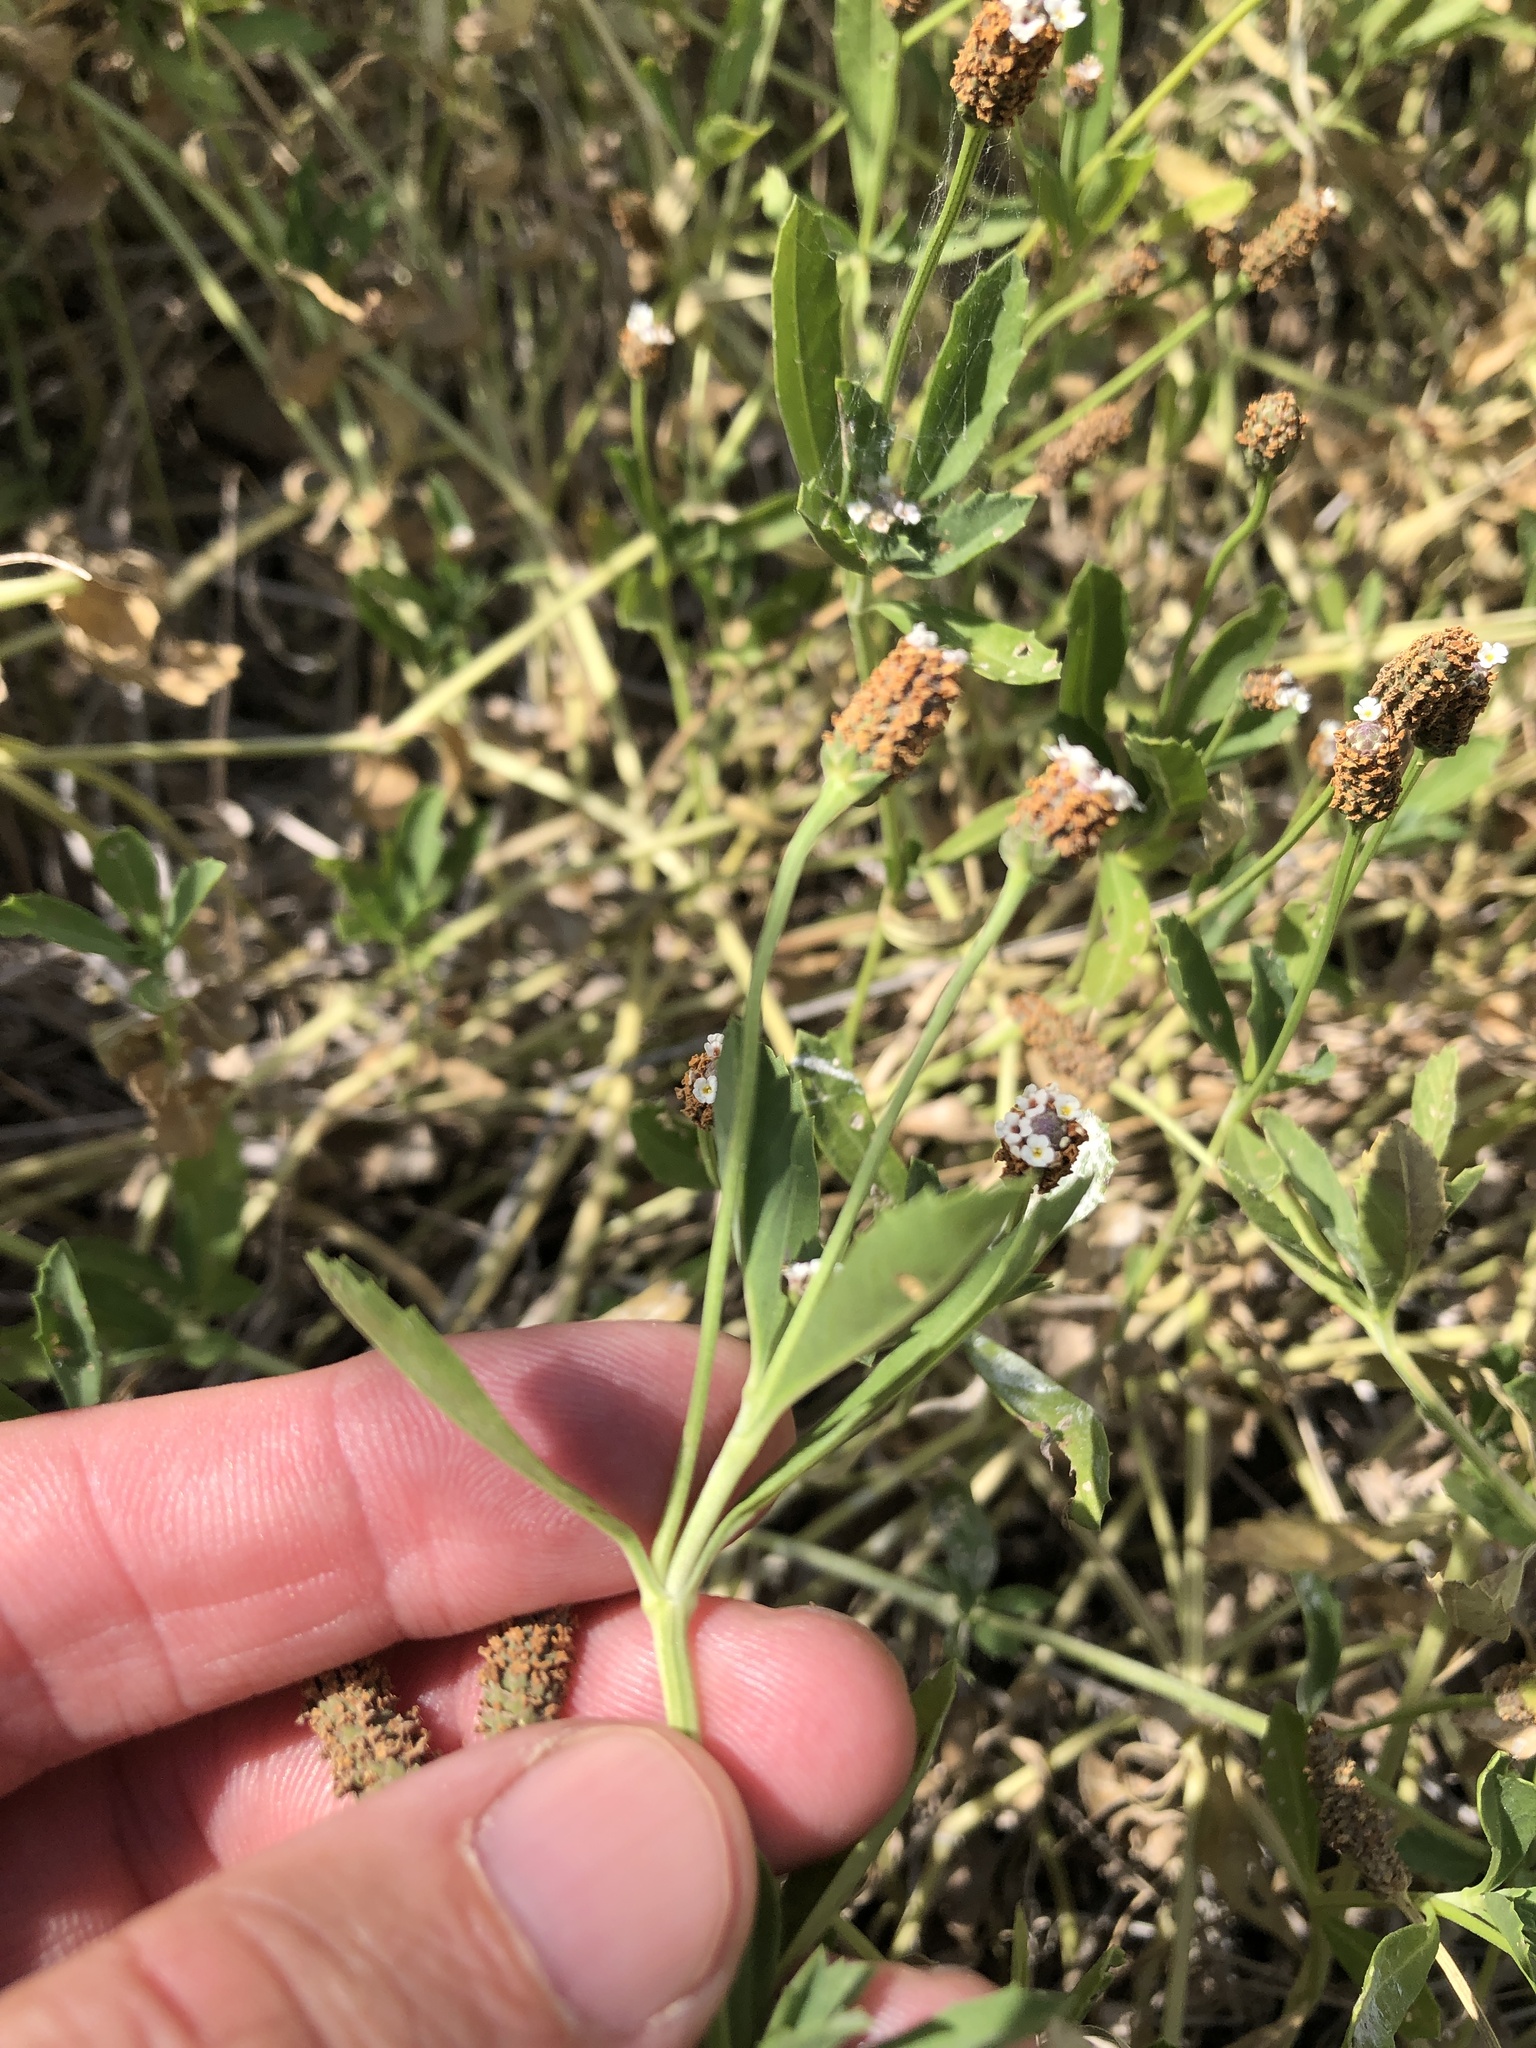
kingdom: Plantae
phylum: Tracheophyta
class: Magnoliopsida
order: Lamiales
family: Verbenaceae
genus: Phyla
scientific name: Phyla nodiflora
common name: Frogfruit
